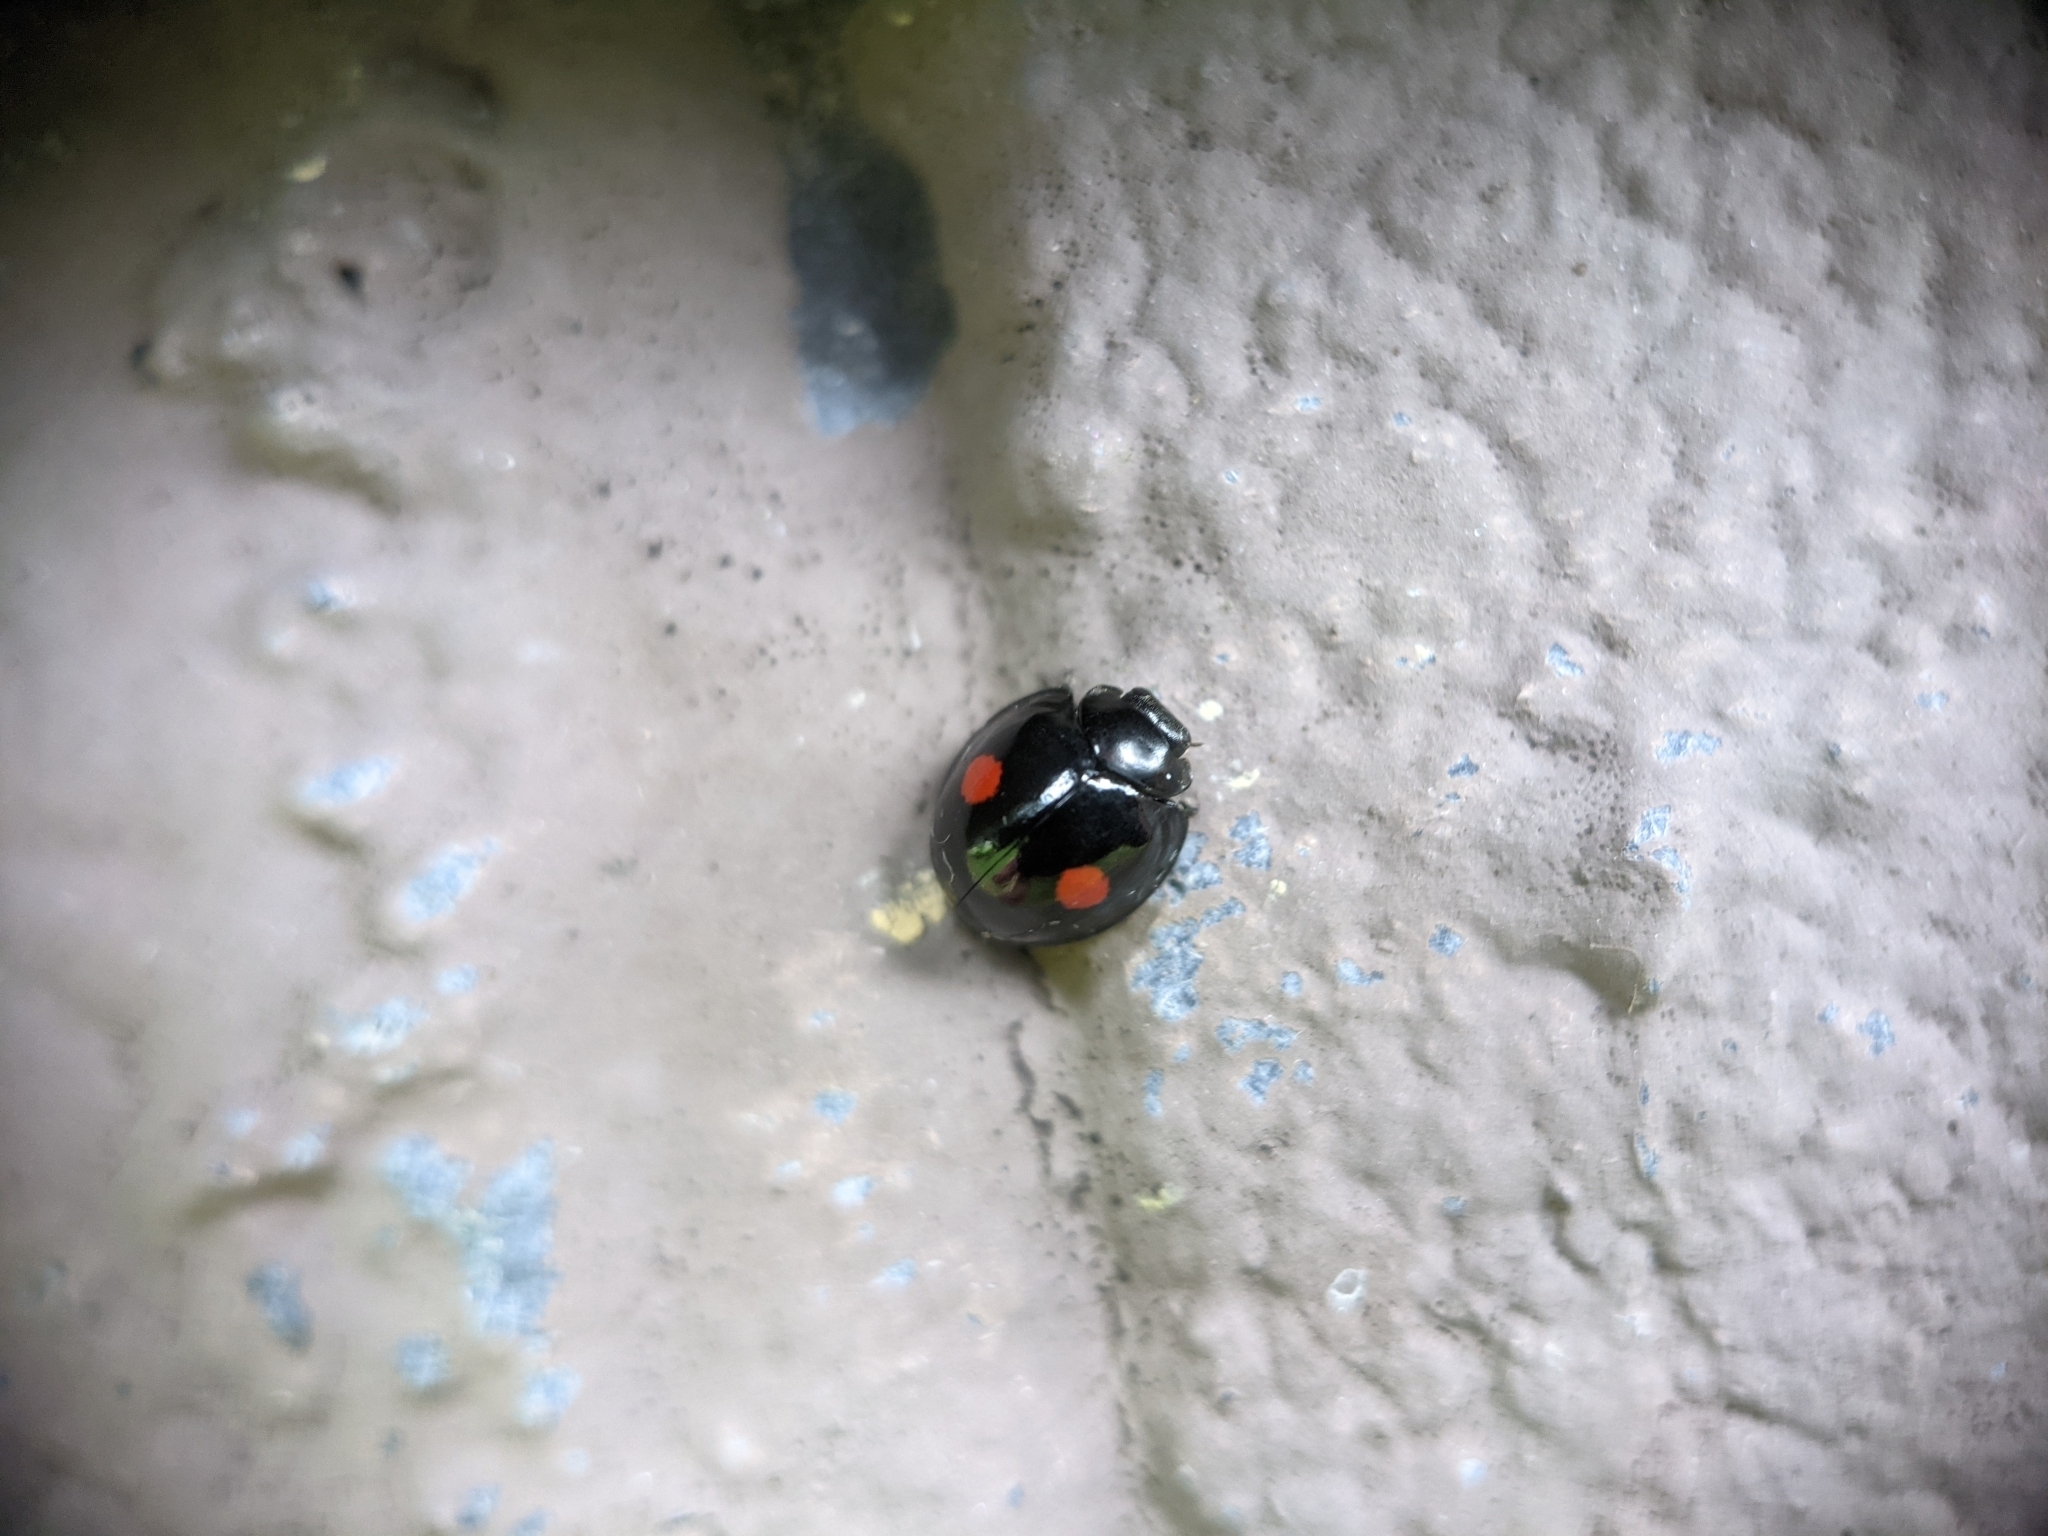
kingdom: Animalia
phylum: Arthropoda
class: Insecta
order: Coleoptera
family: Coccinellidae
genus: Chilocorus
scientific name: Chilocorus stigma
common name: Twicestabbed lady beetle
